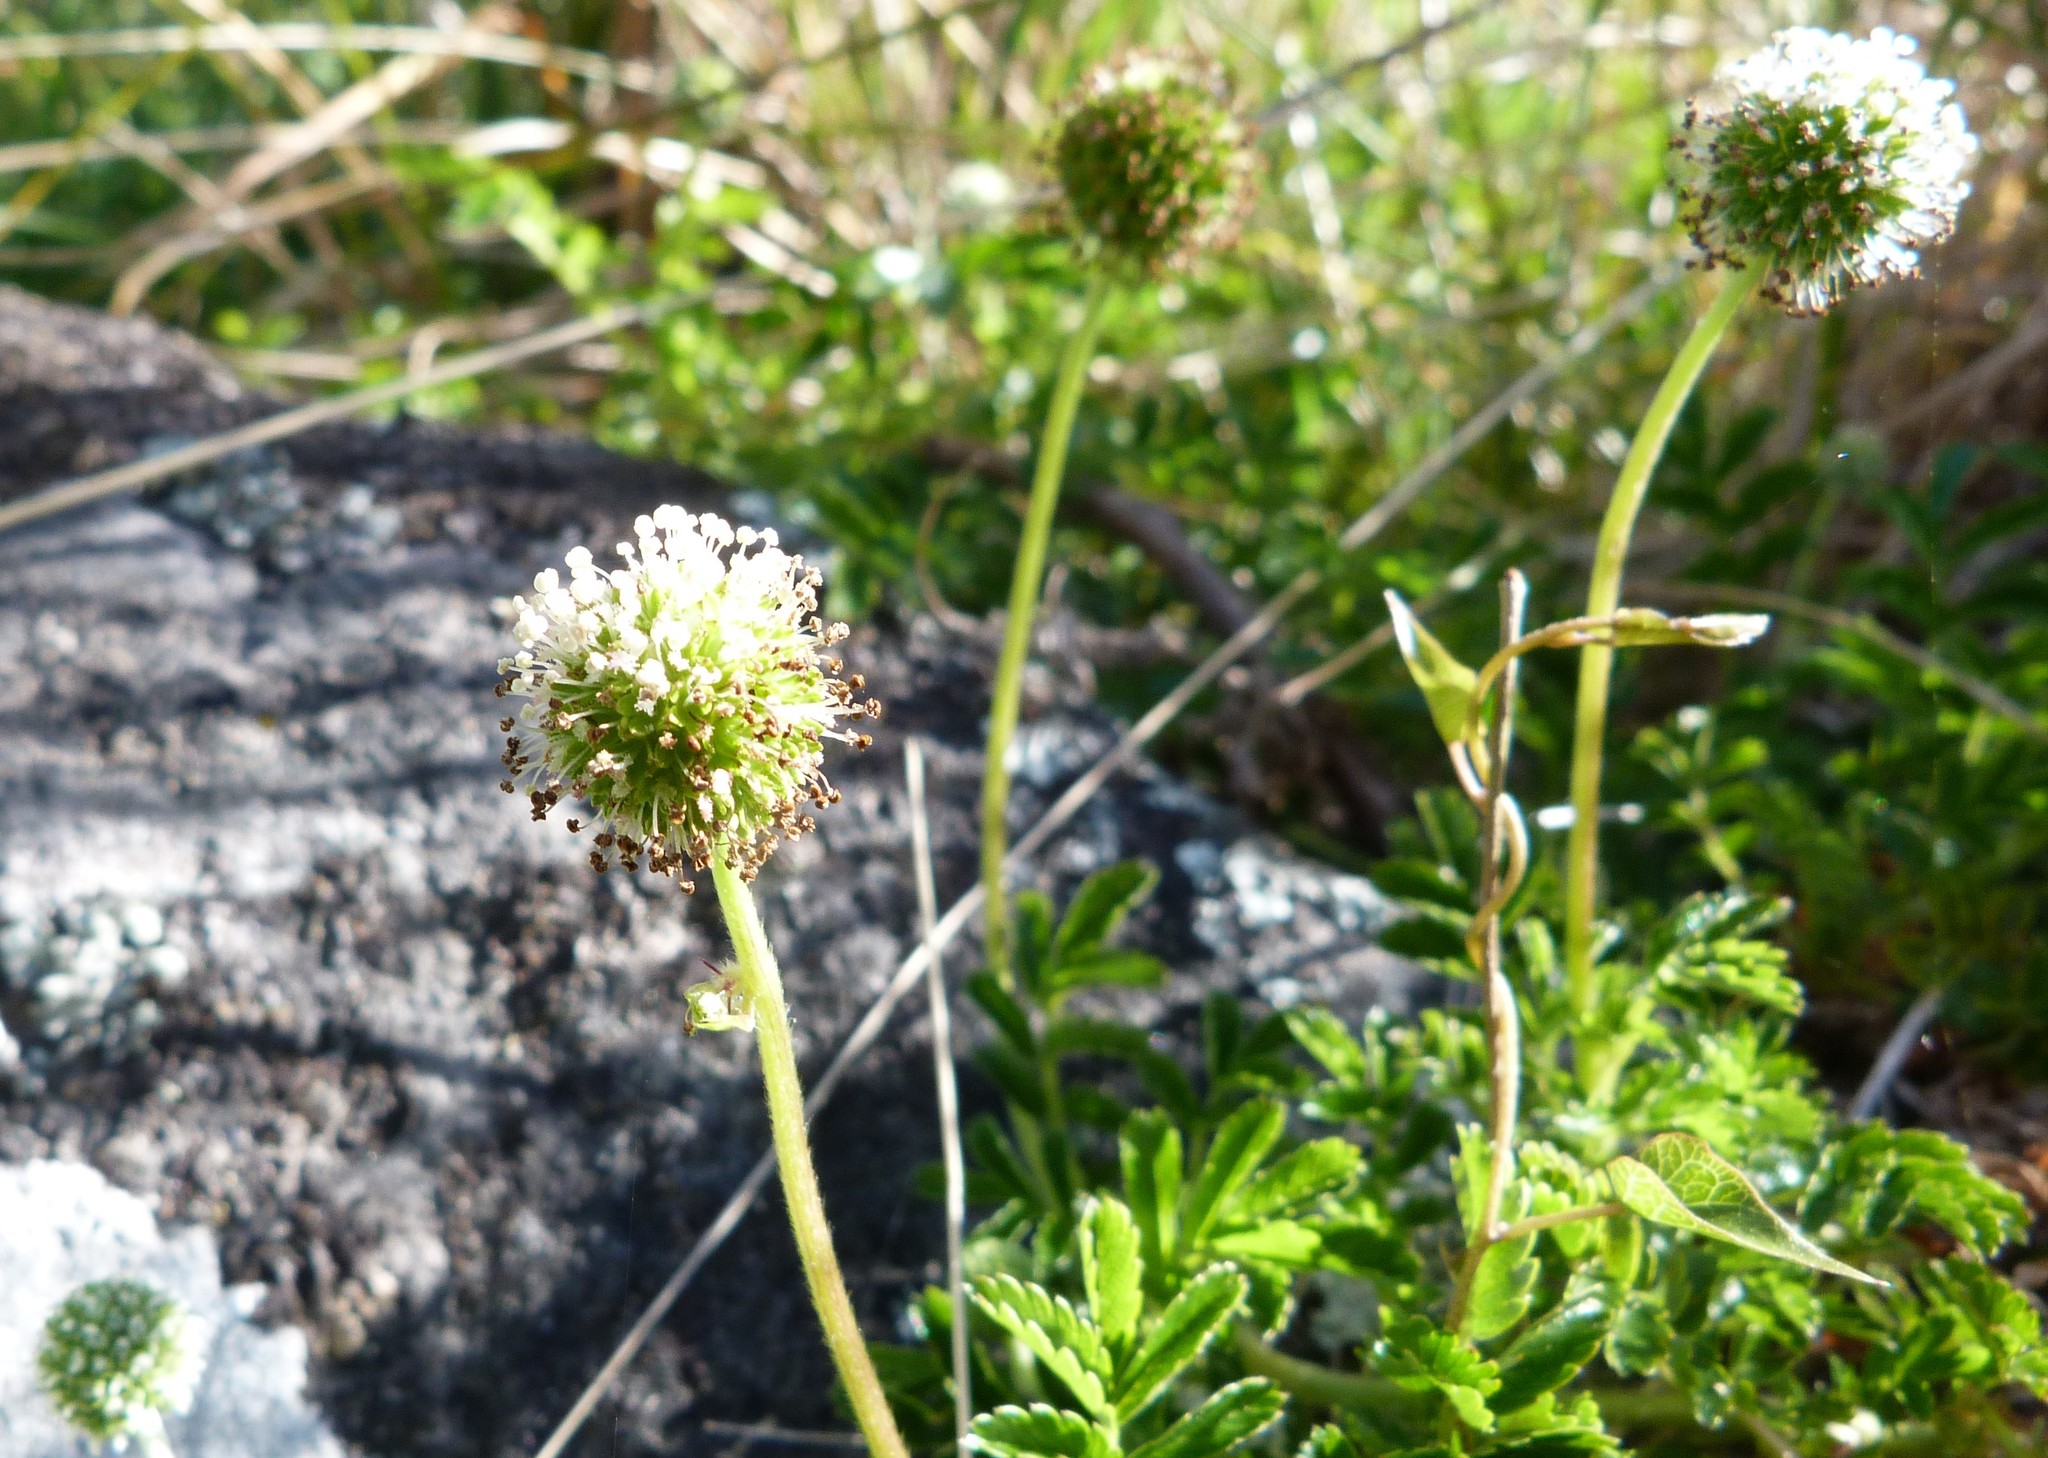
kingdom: Plantae
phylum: Tracheophyta
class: Magnoliopsida
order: Rosales
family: Rosaceae
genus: Acaena
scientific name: Acaena novae-zelandiae
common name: Pirri-pirri-bur
